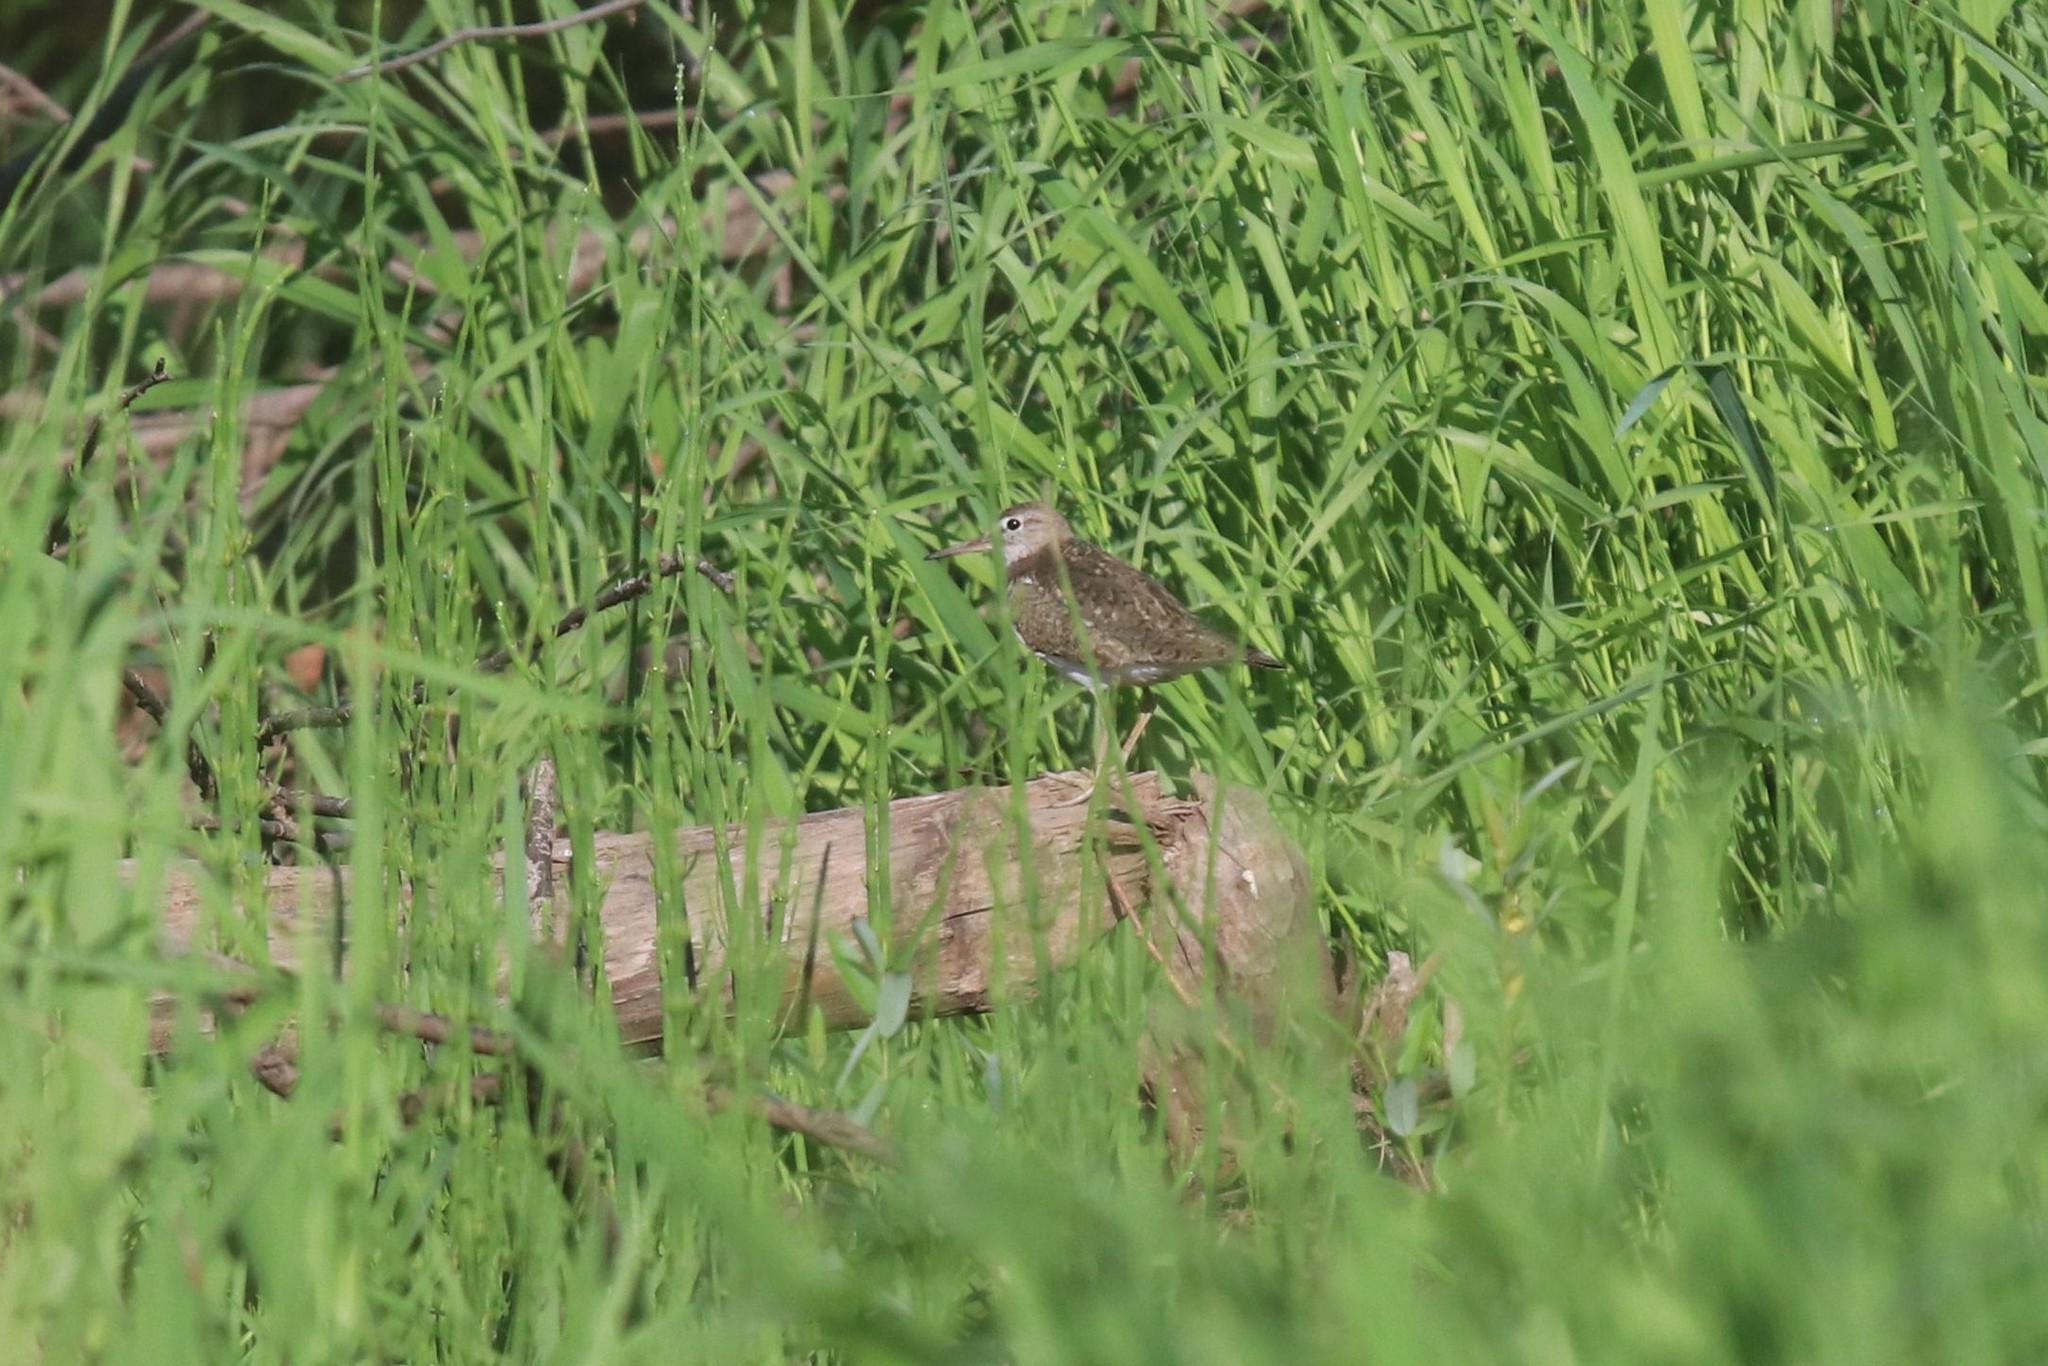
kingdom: Animalia
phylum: Chordata
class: Aves
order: Charadriiformes
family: Scolopacidae
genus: Actitis
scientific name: Actitis hypoleucos
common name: Common sandpiper
